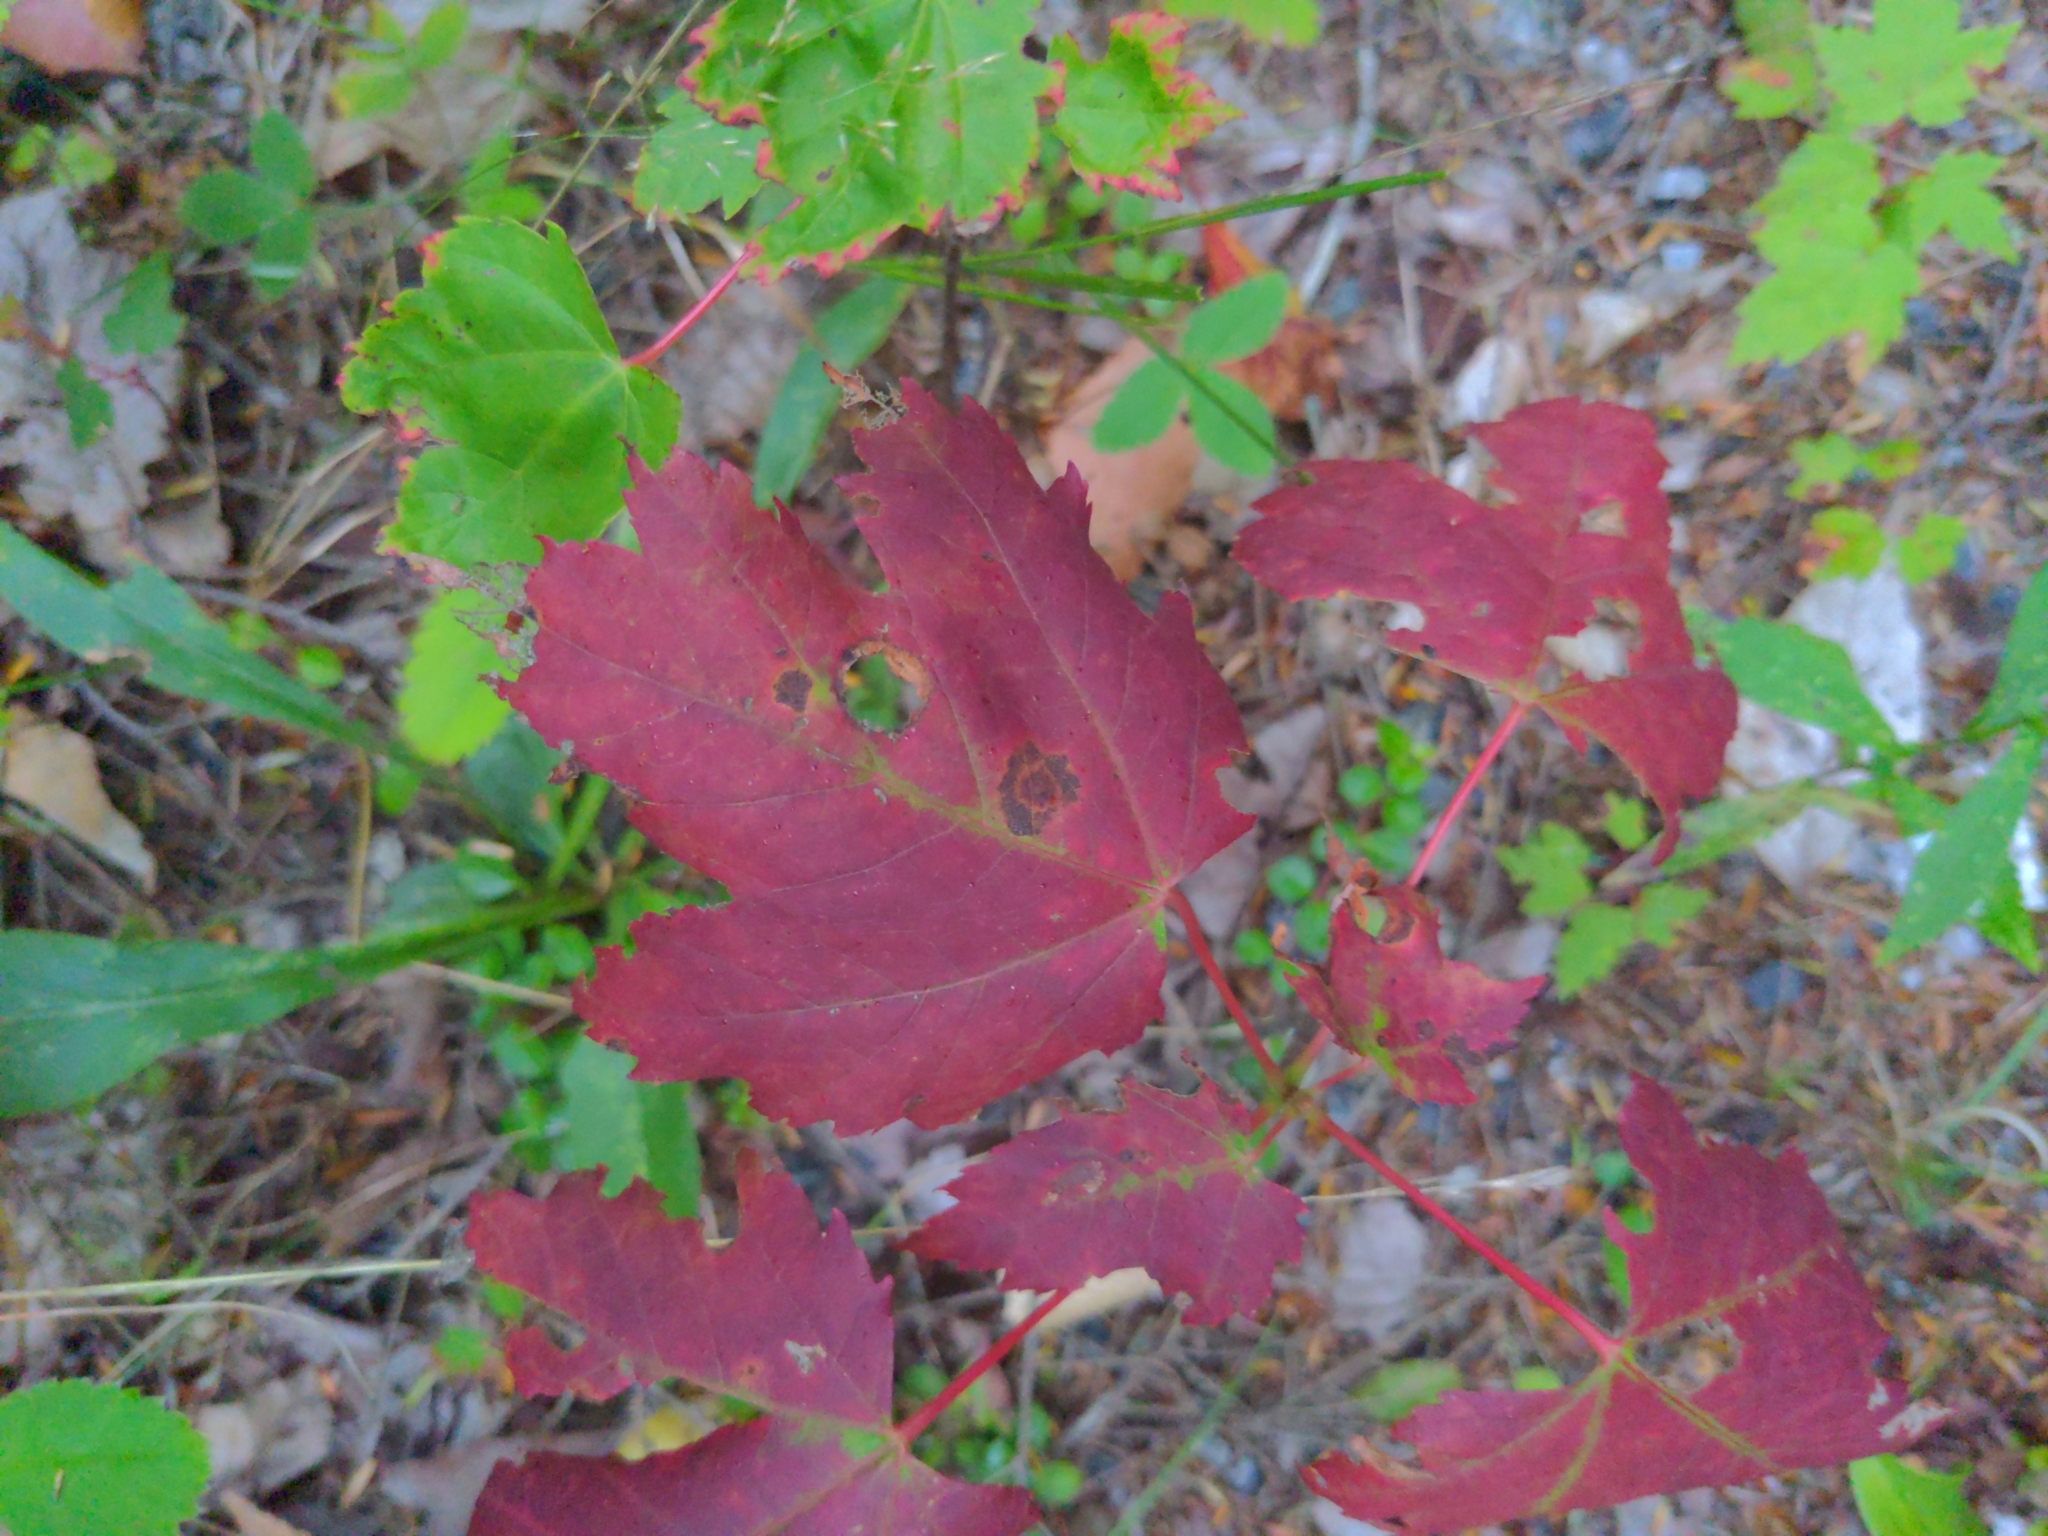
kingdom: Plantae
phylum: Tracheophyta
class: Magnoliopsida
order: Sapindales
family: Sapindaceae
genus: Acer
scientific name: Acer rubrum
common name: Red maple
